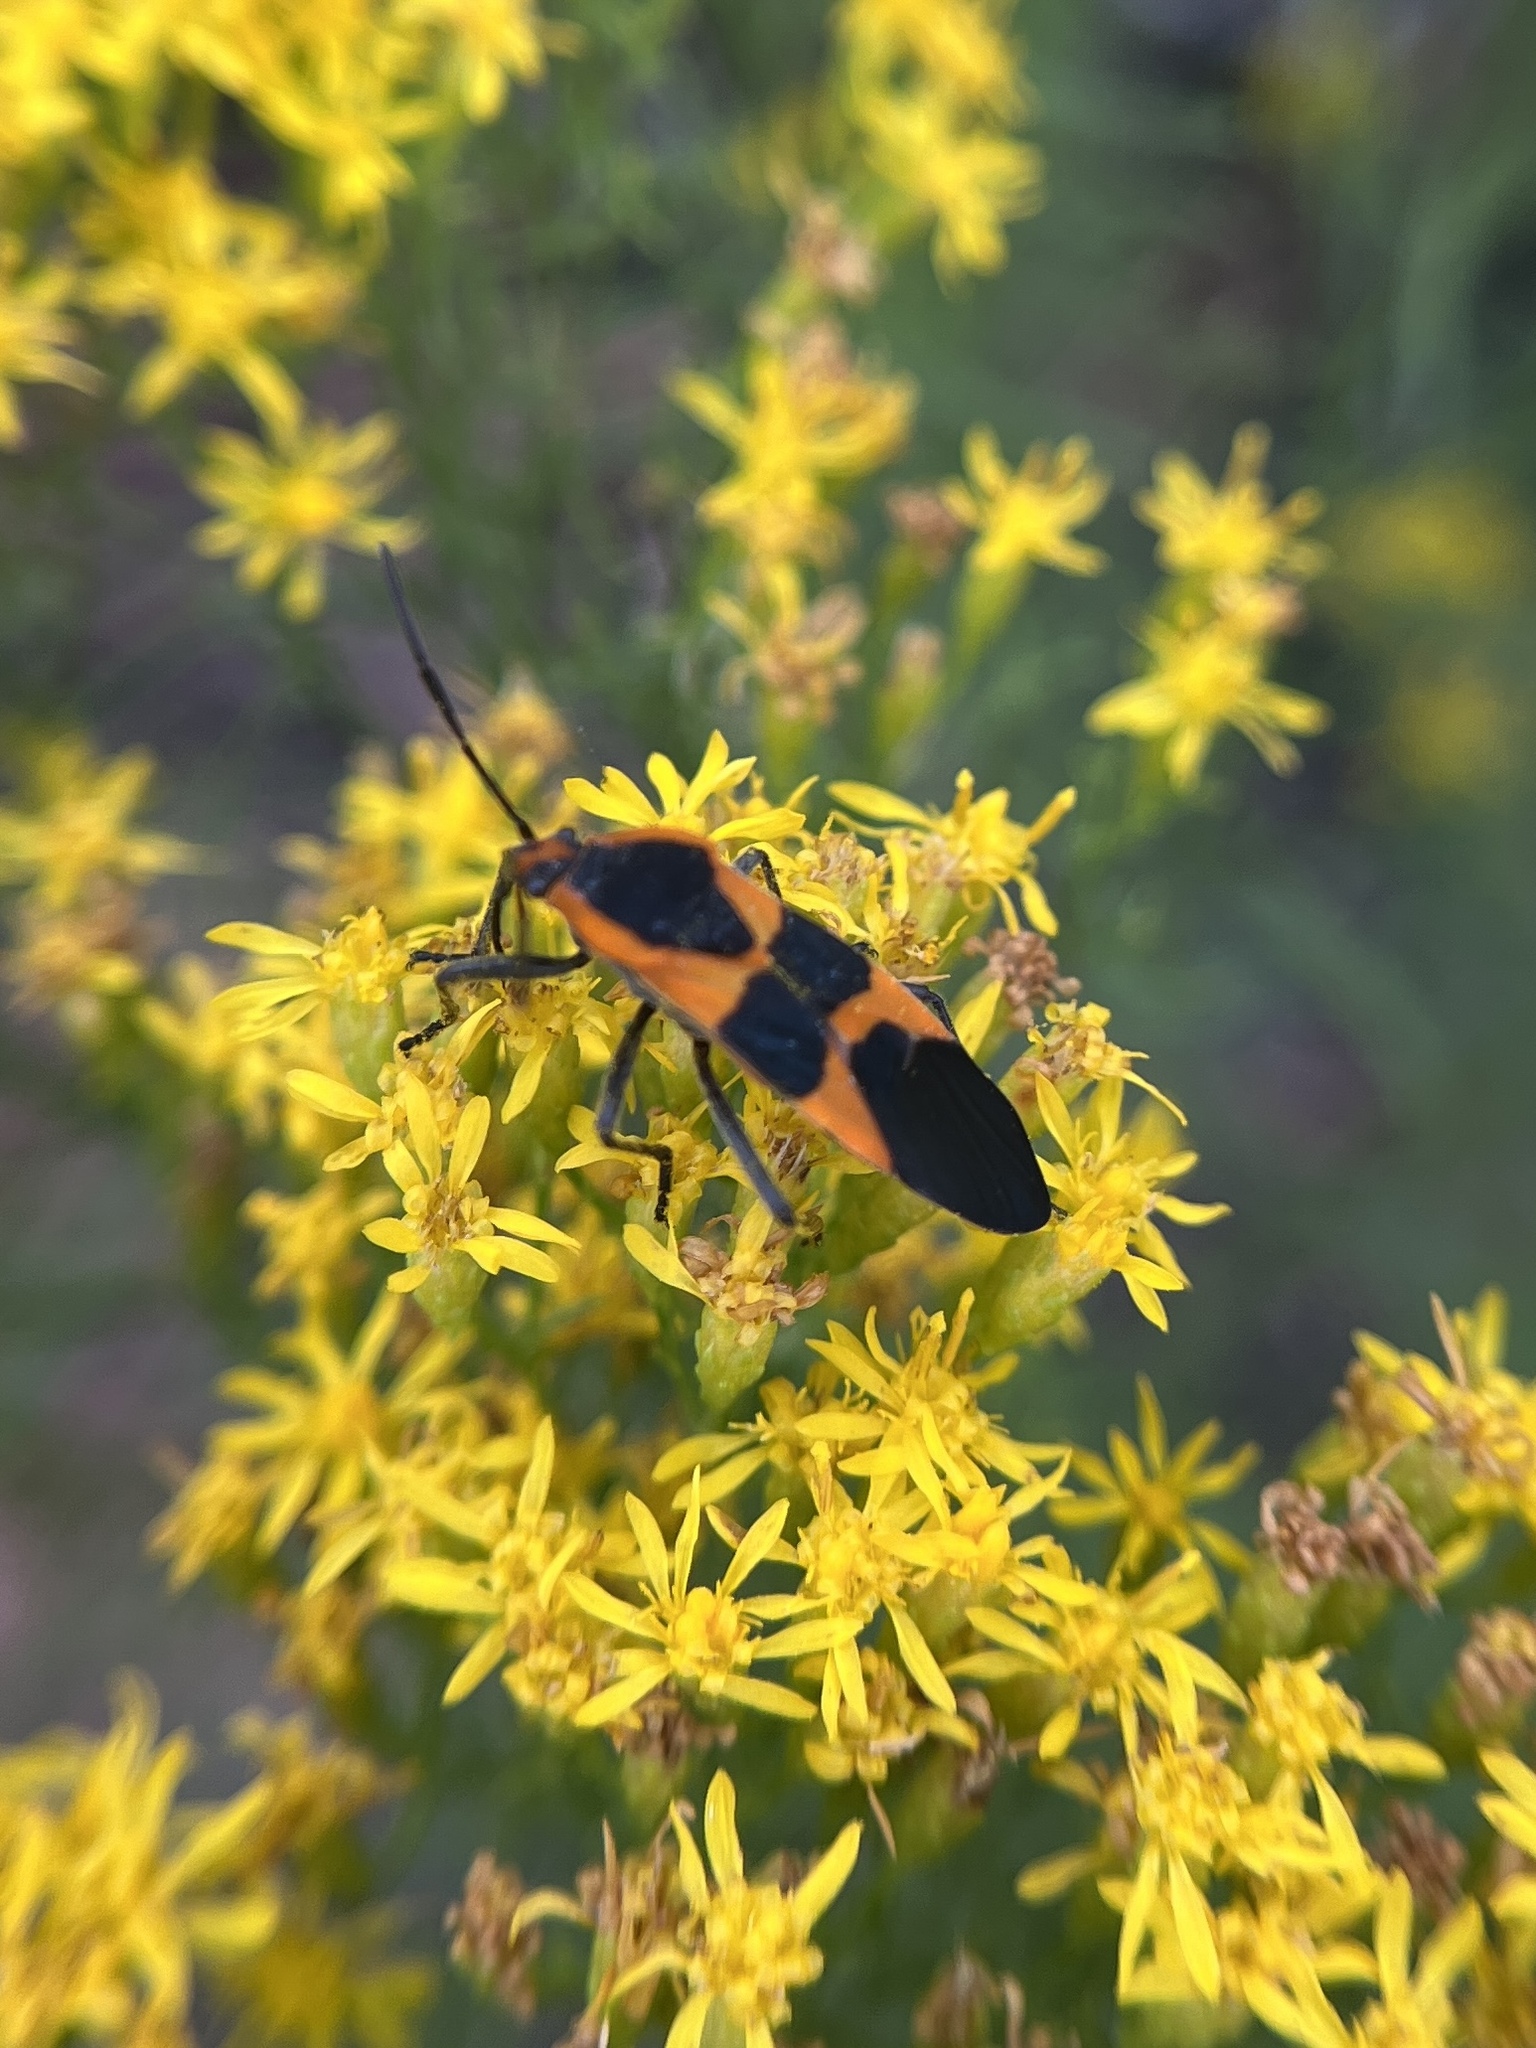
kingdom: Animalia
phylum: Arthropoda
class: Insecta
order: Hemiptera
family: Lygaeidae
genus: Oncopeltus
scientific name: Oncopeltus fasciatus
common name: Large milkweed bug
